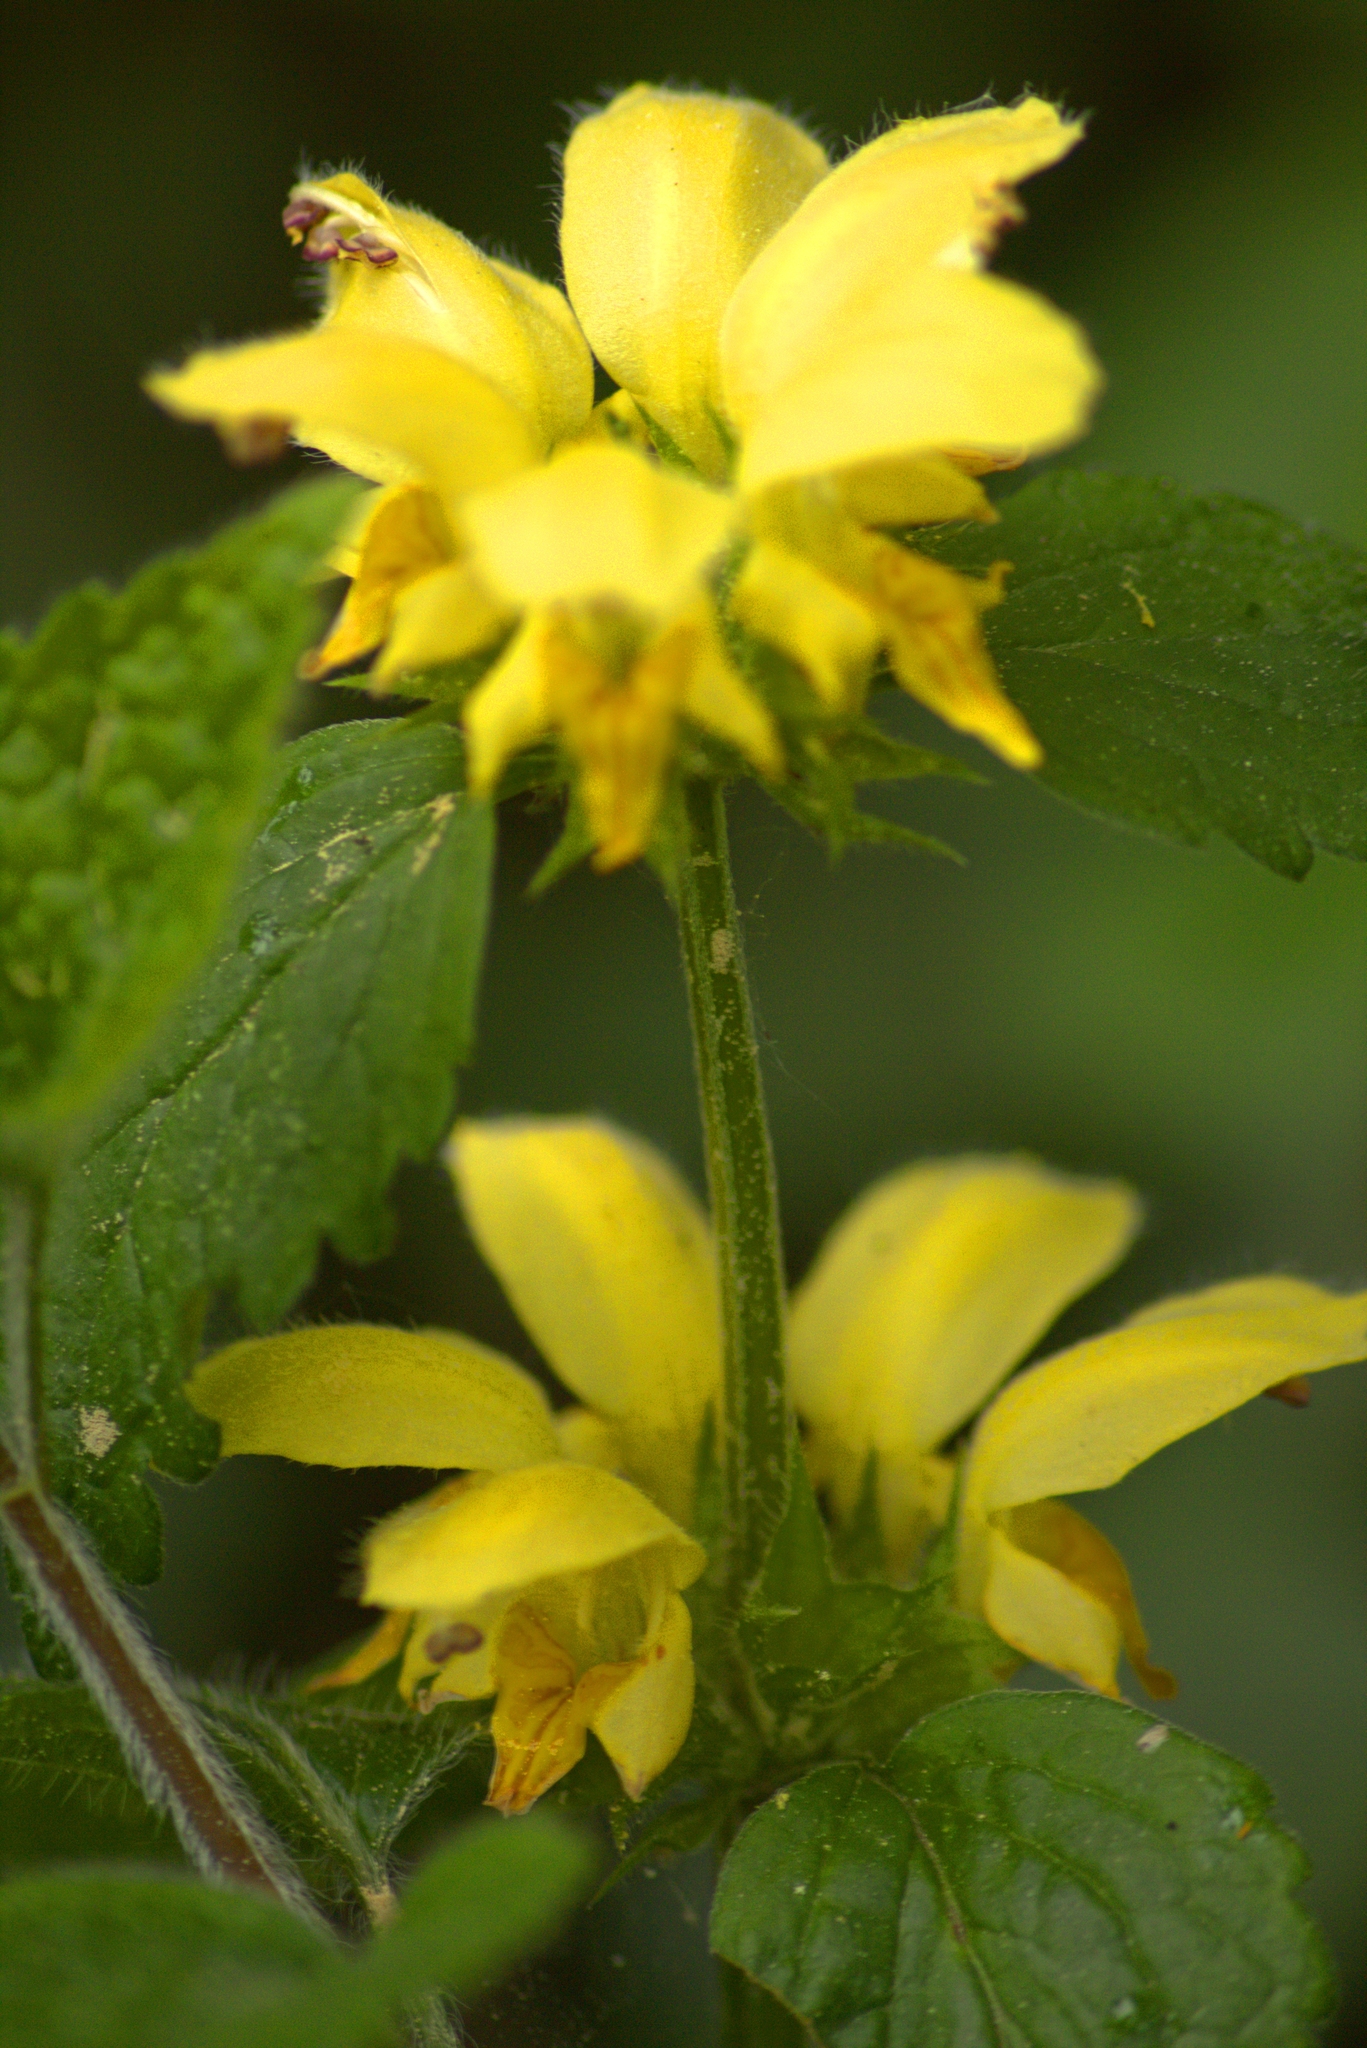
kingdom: Plantae
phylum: Tracheophyta
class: Magnoliopsida
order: Lamiales
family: Lamiaceae
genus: Lamium
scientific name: Lamium galeobdolon
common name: Yellow archangel
